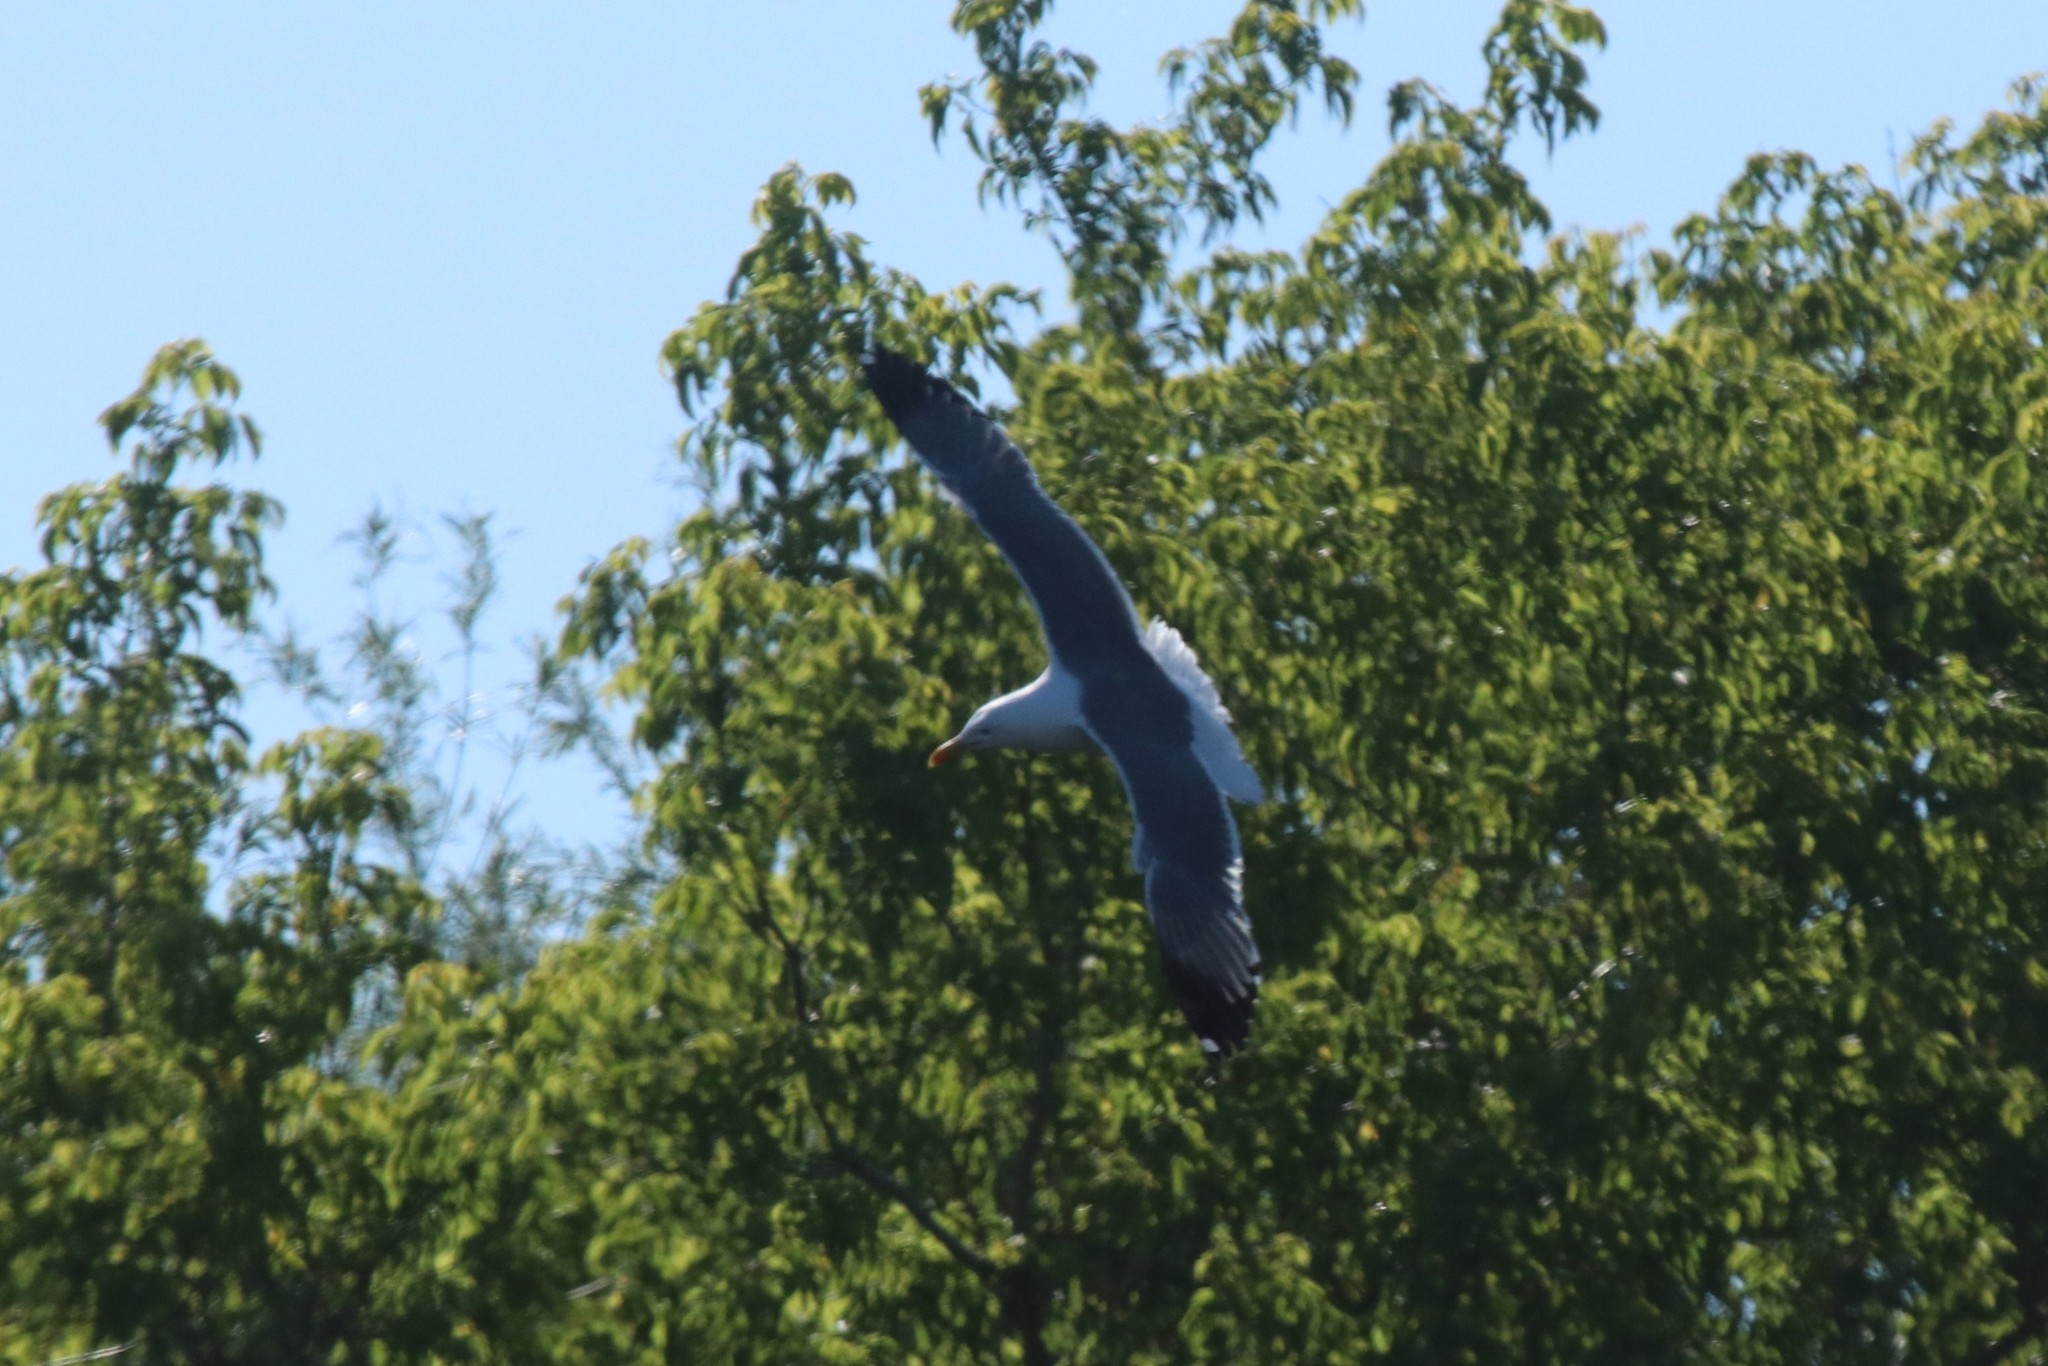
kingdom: Animalia
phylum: Chordata
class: Aves
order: Charadriiformes
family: Laridae
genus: Larus
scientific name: Larus fuscus
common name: Lesser black-backed gull
